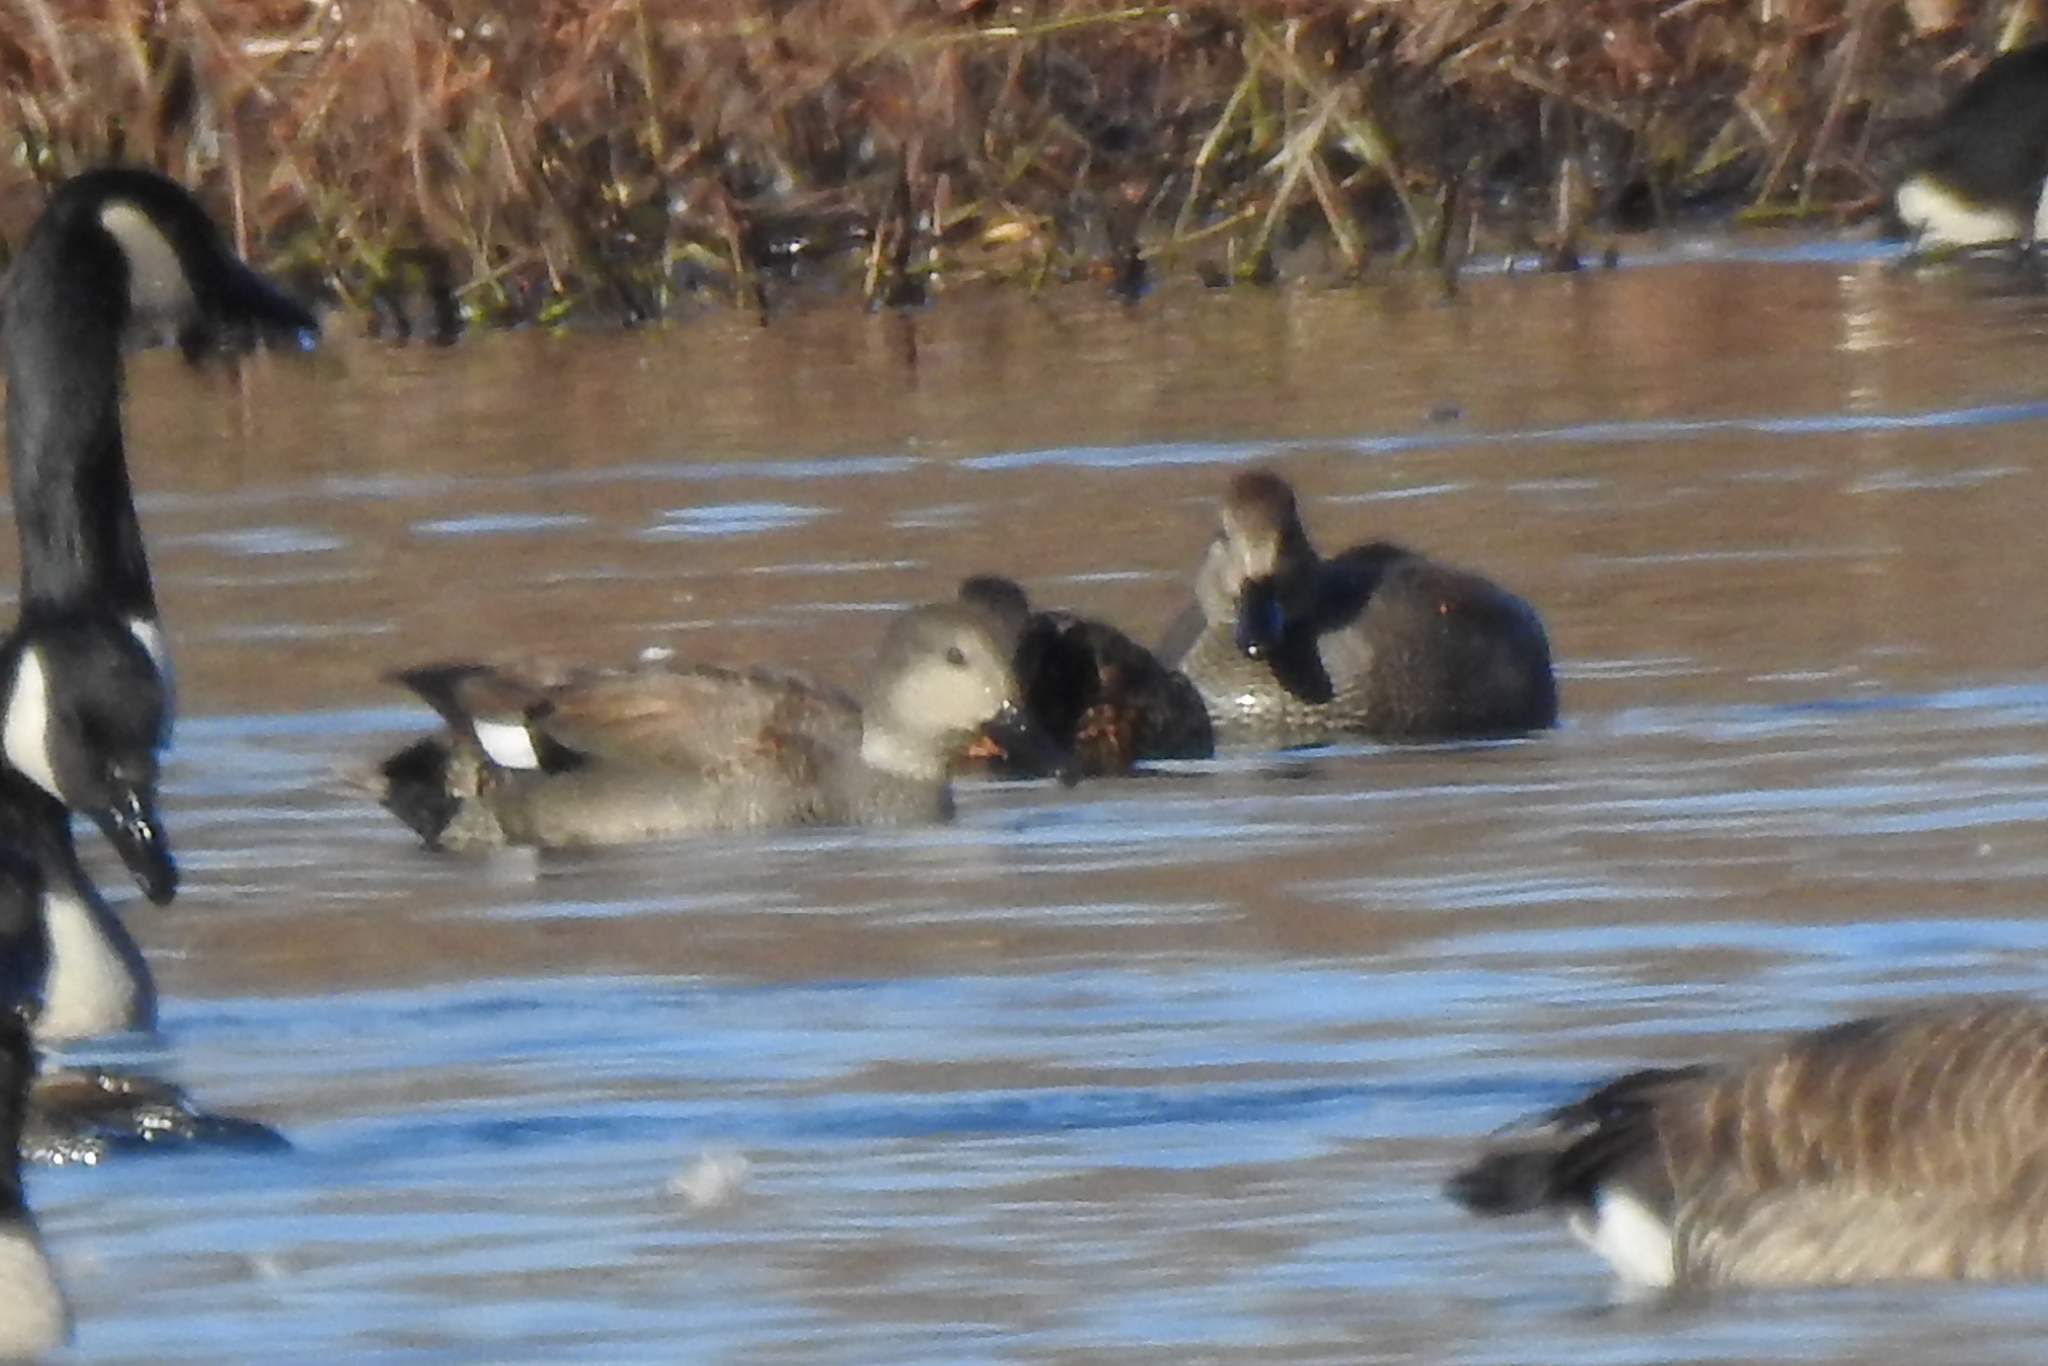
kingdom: Animalia
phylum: Chordata
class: Aves
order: Anseriformes
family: Anatidae
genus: Mareca
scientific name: Mareca strepera
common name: Gadwall
